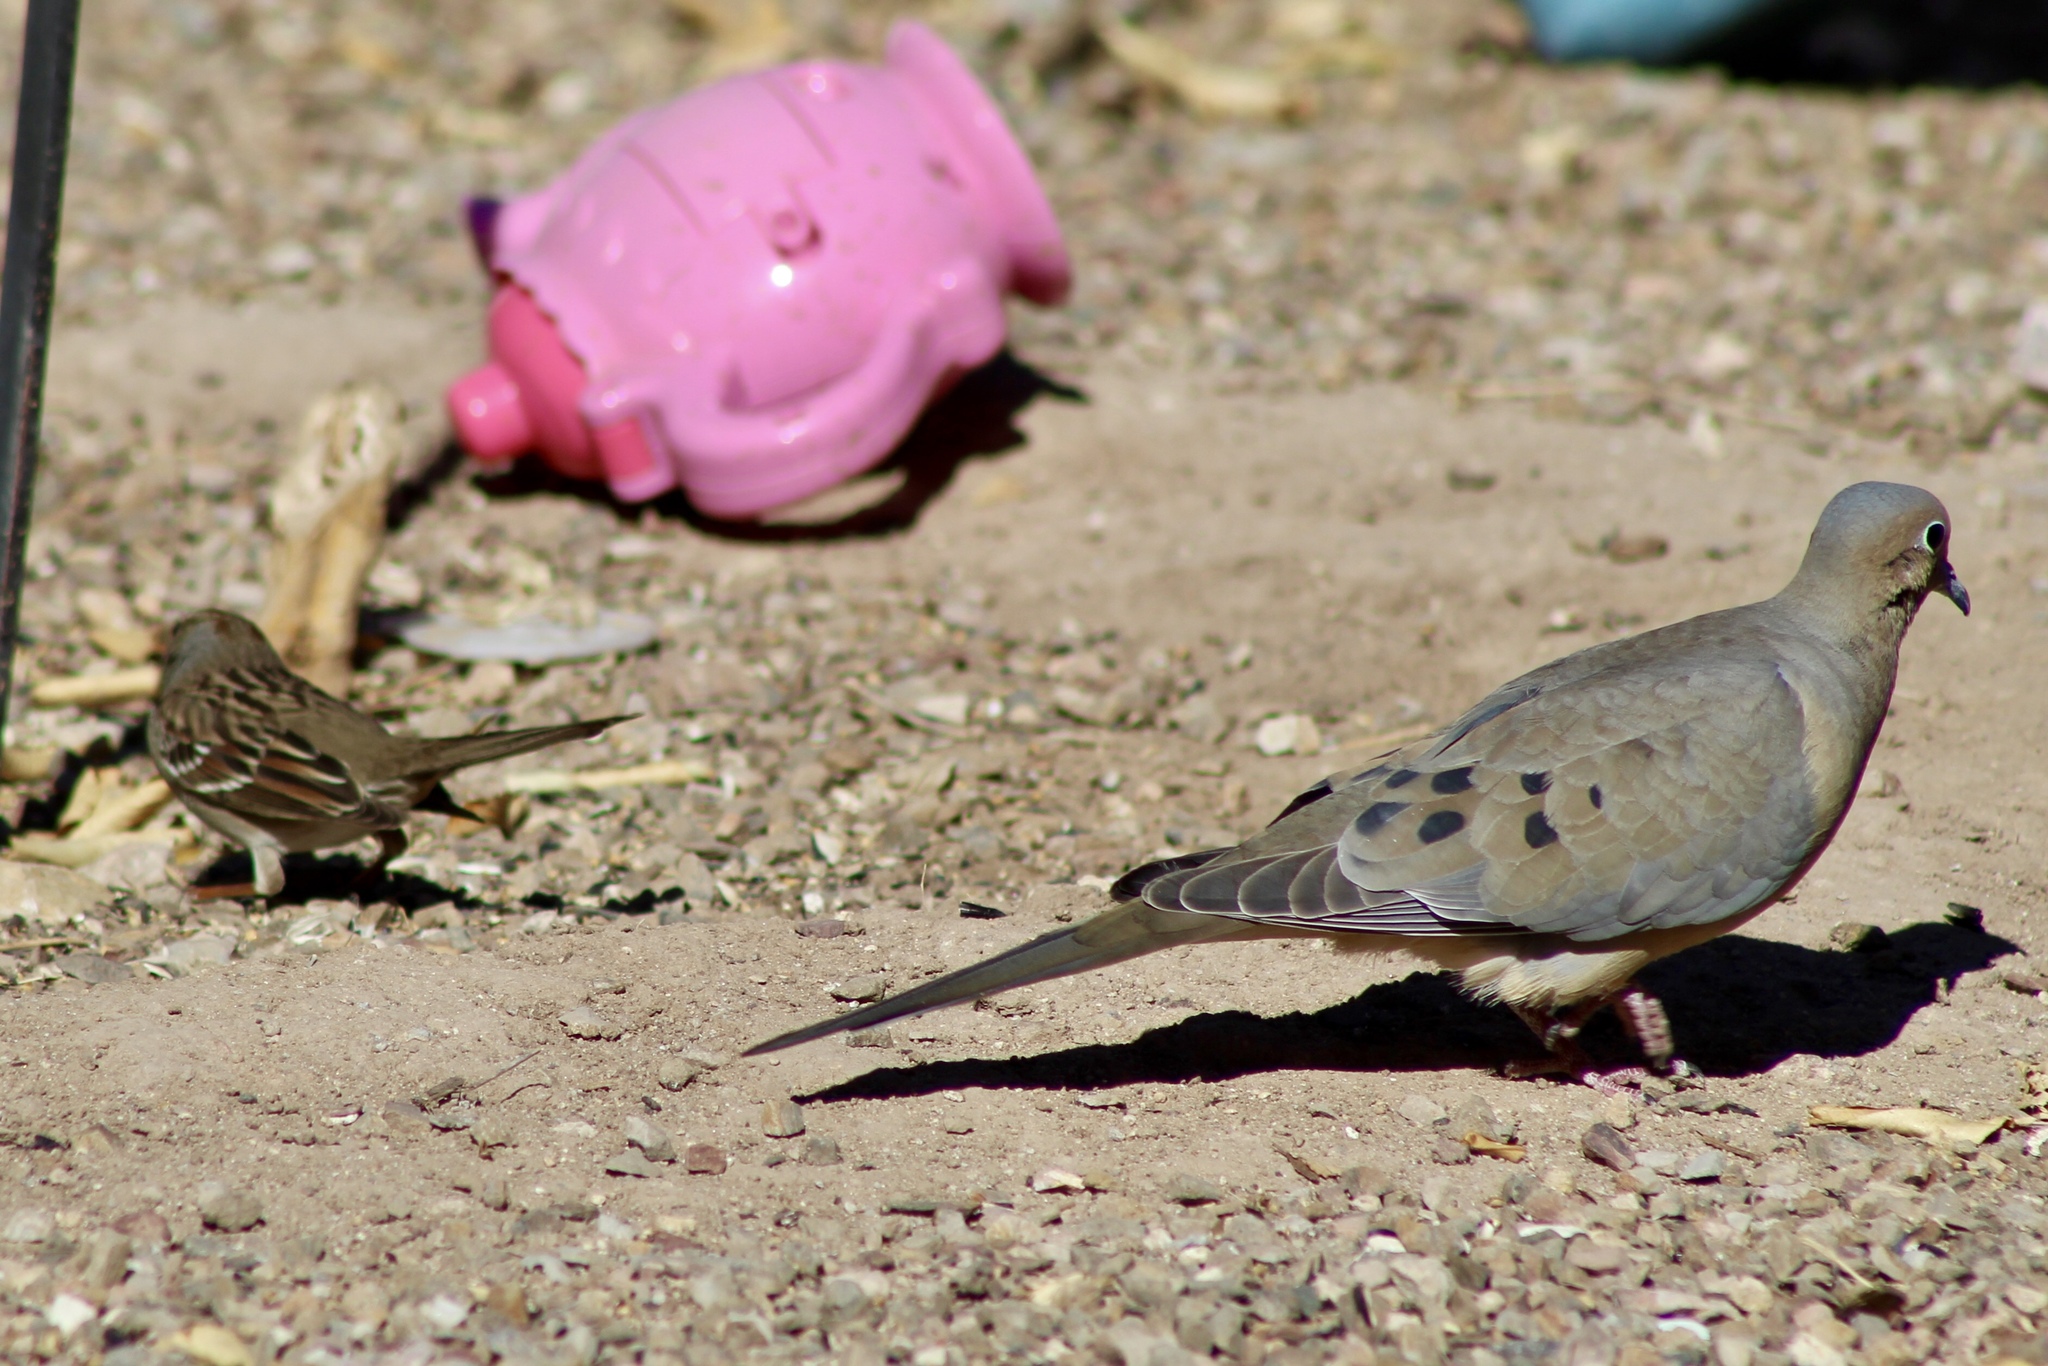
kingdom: Animalia
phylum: Chordata
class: Aves
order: Columbiformes
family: Columbidae
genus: Zenaida
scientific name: Zenaida macroura
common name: Mourning dove
